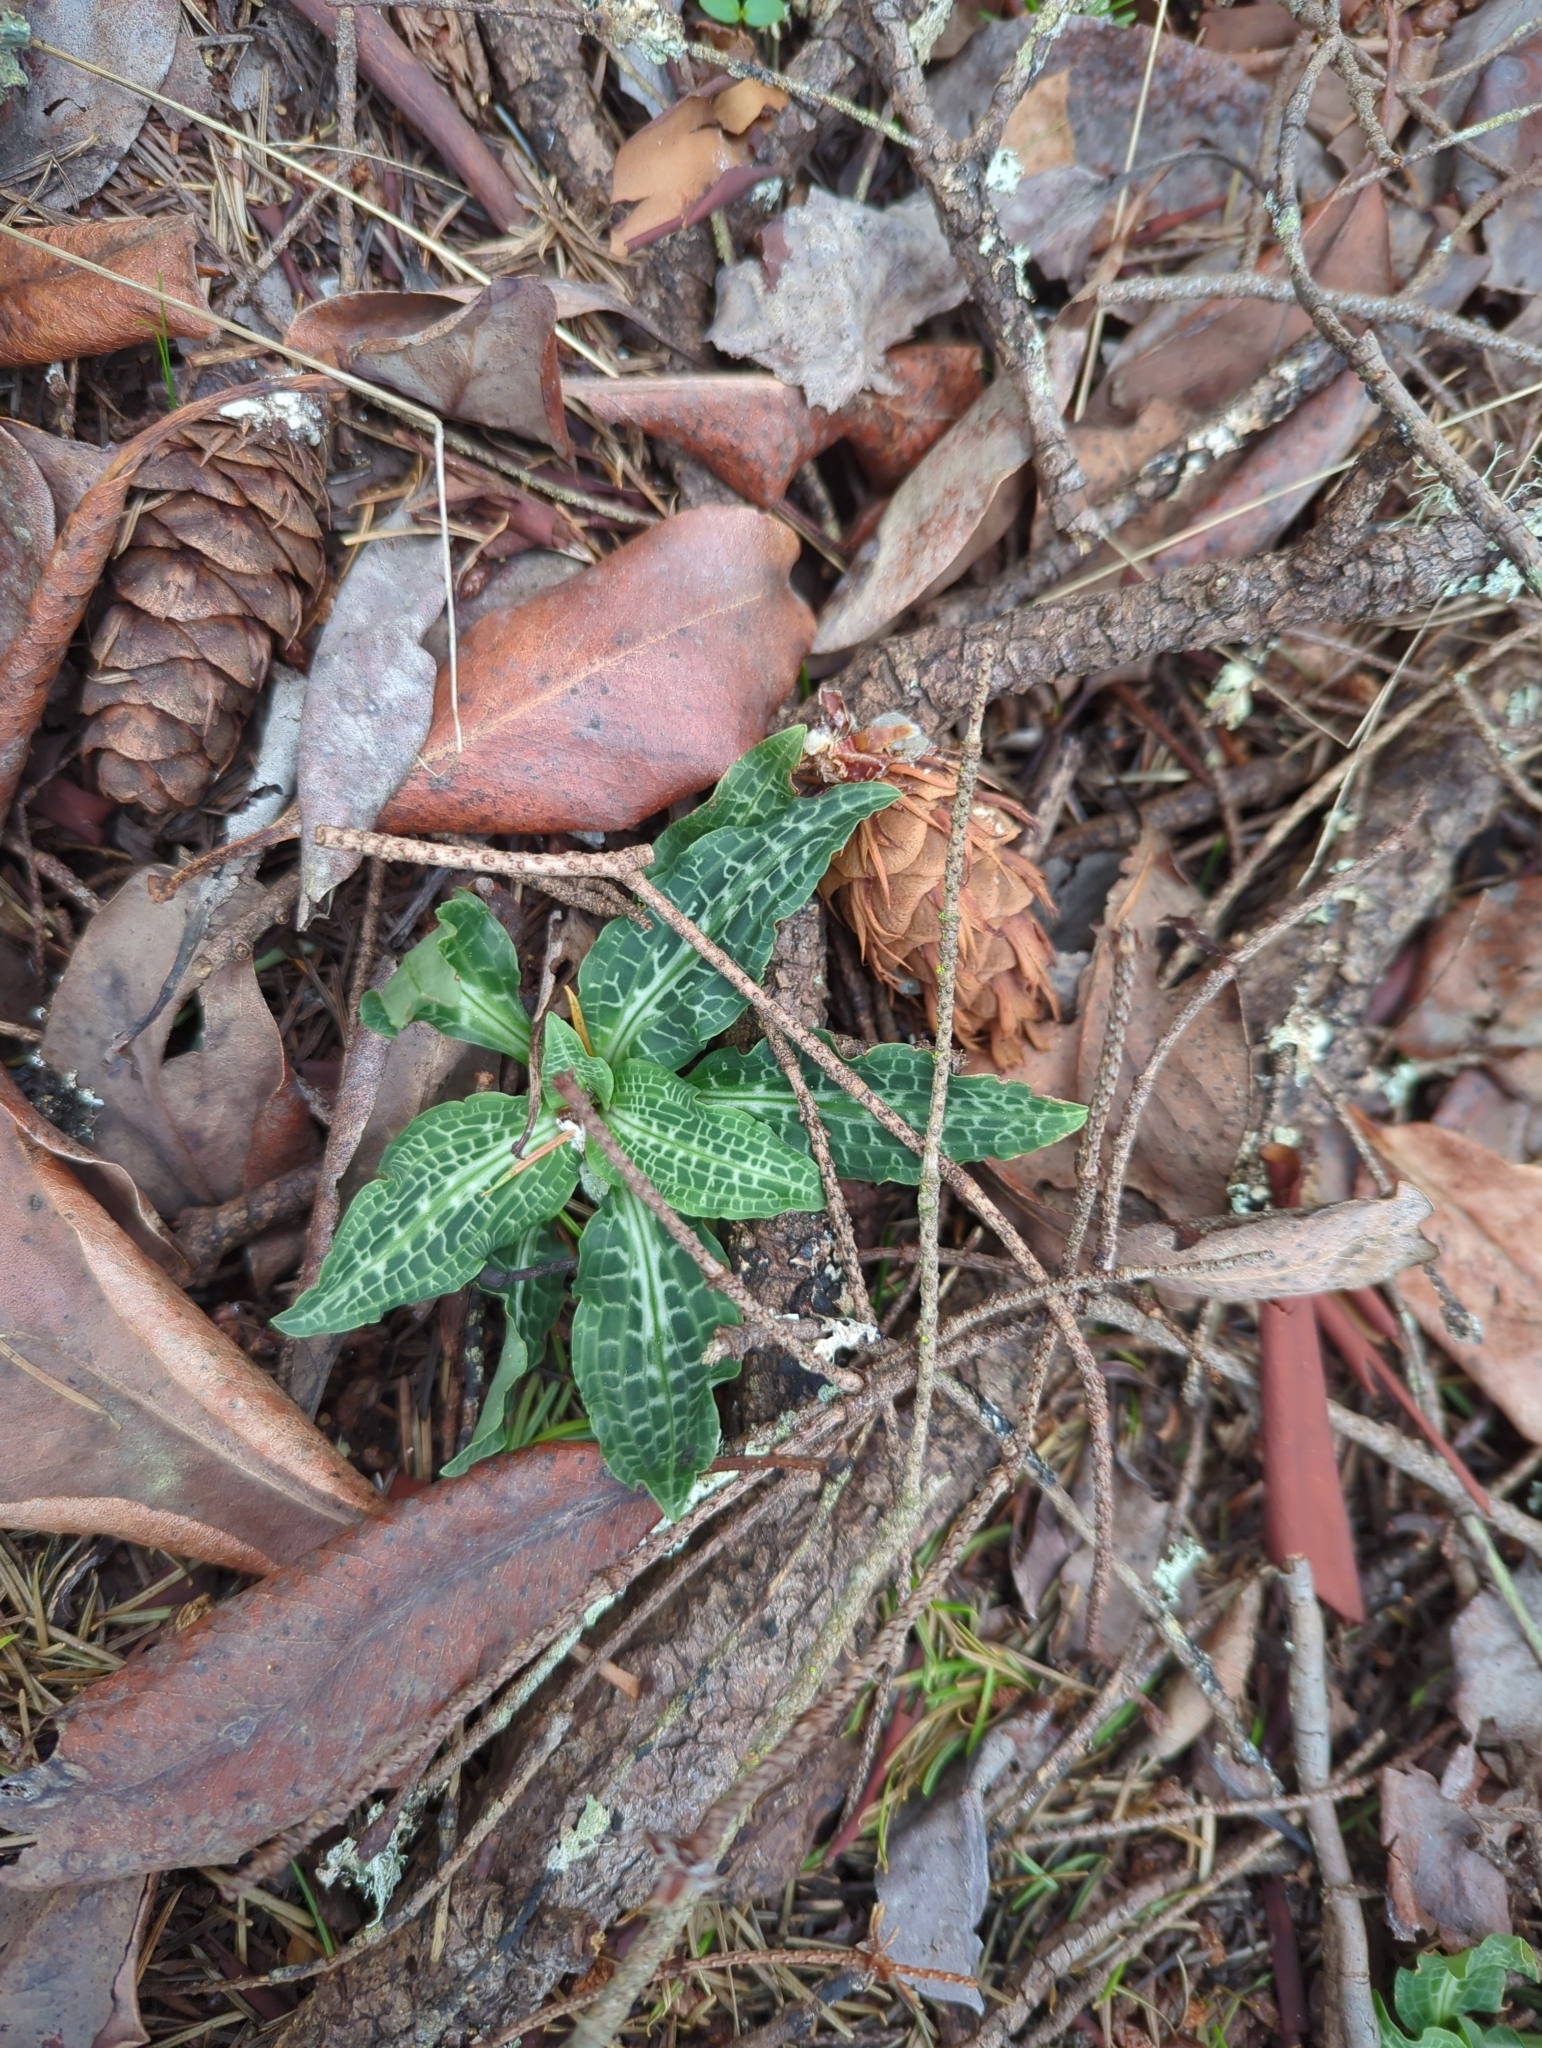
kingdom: Plantae
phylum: Tracheophyta
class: Liliopsida
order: Asparagales
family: Orchidaceae
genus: Goodyera
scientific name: Goodyera oblongifolia
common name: Giant rattlesnake-plantain
